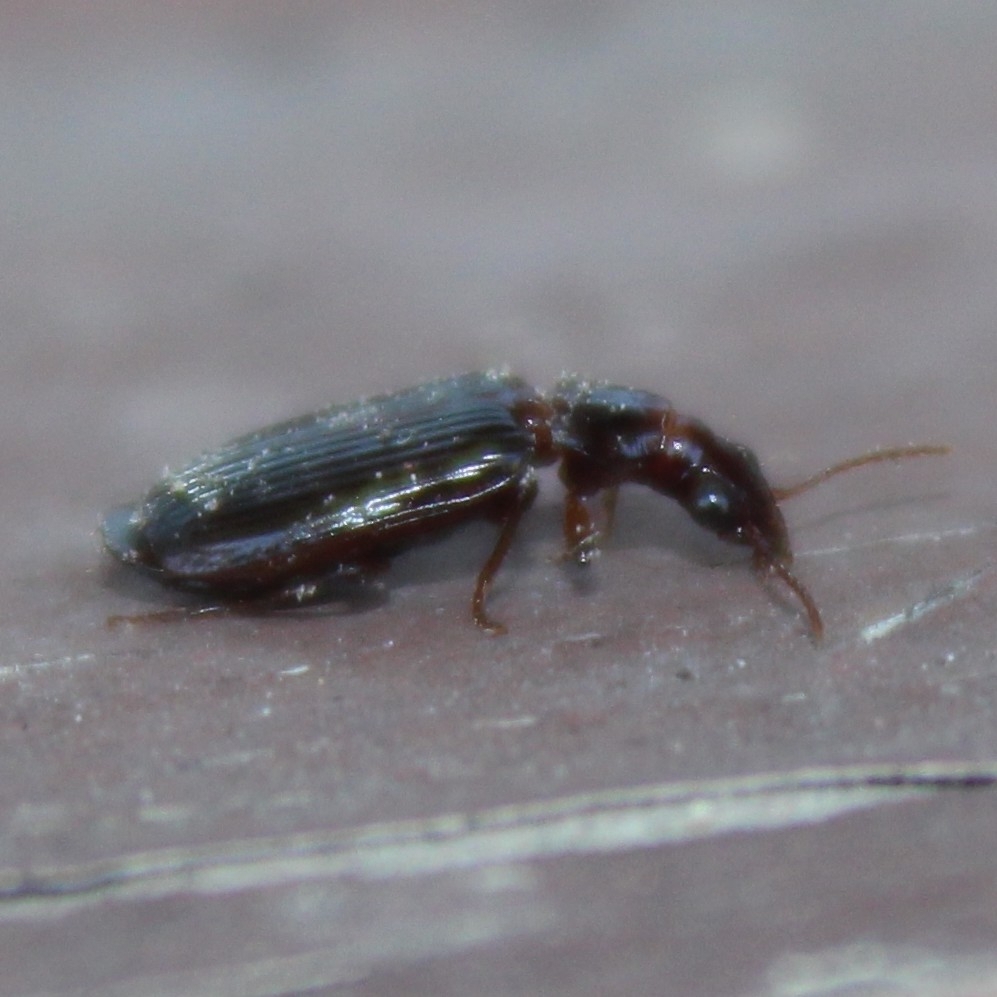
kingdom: Animalia
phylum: Arthropoda
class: Insecta
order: Coleoptera
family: Carabidae
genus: Plochionus
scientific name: Plochionus timidus
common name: Timid harp ground beetle
